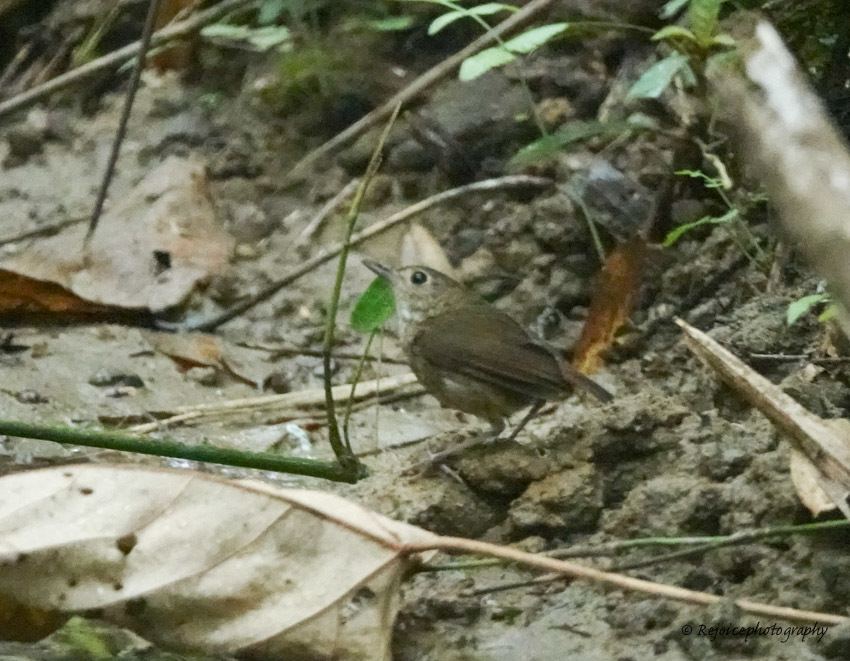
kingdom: Animalia
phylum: Chordata
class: Aves
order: Passeriformes
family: Muscicapidae
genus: Brachypteryx
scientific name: Brachypteryx leucophris
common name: Lesser shortwing
